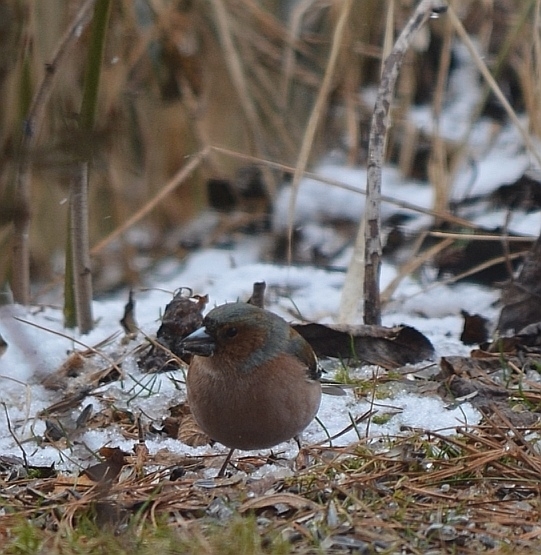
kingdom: Animalia
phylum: Chordata
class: Aves
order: Passeriformes
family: Fringillidae
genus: Fringilla
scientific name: Fringilla coelebs
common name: Common chaffinch
